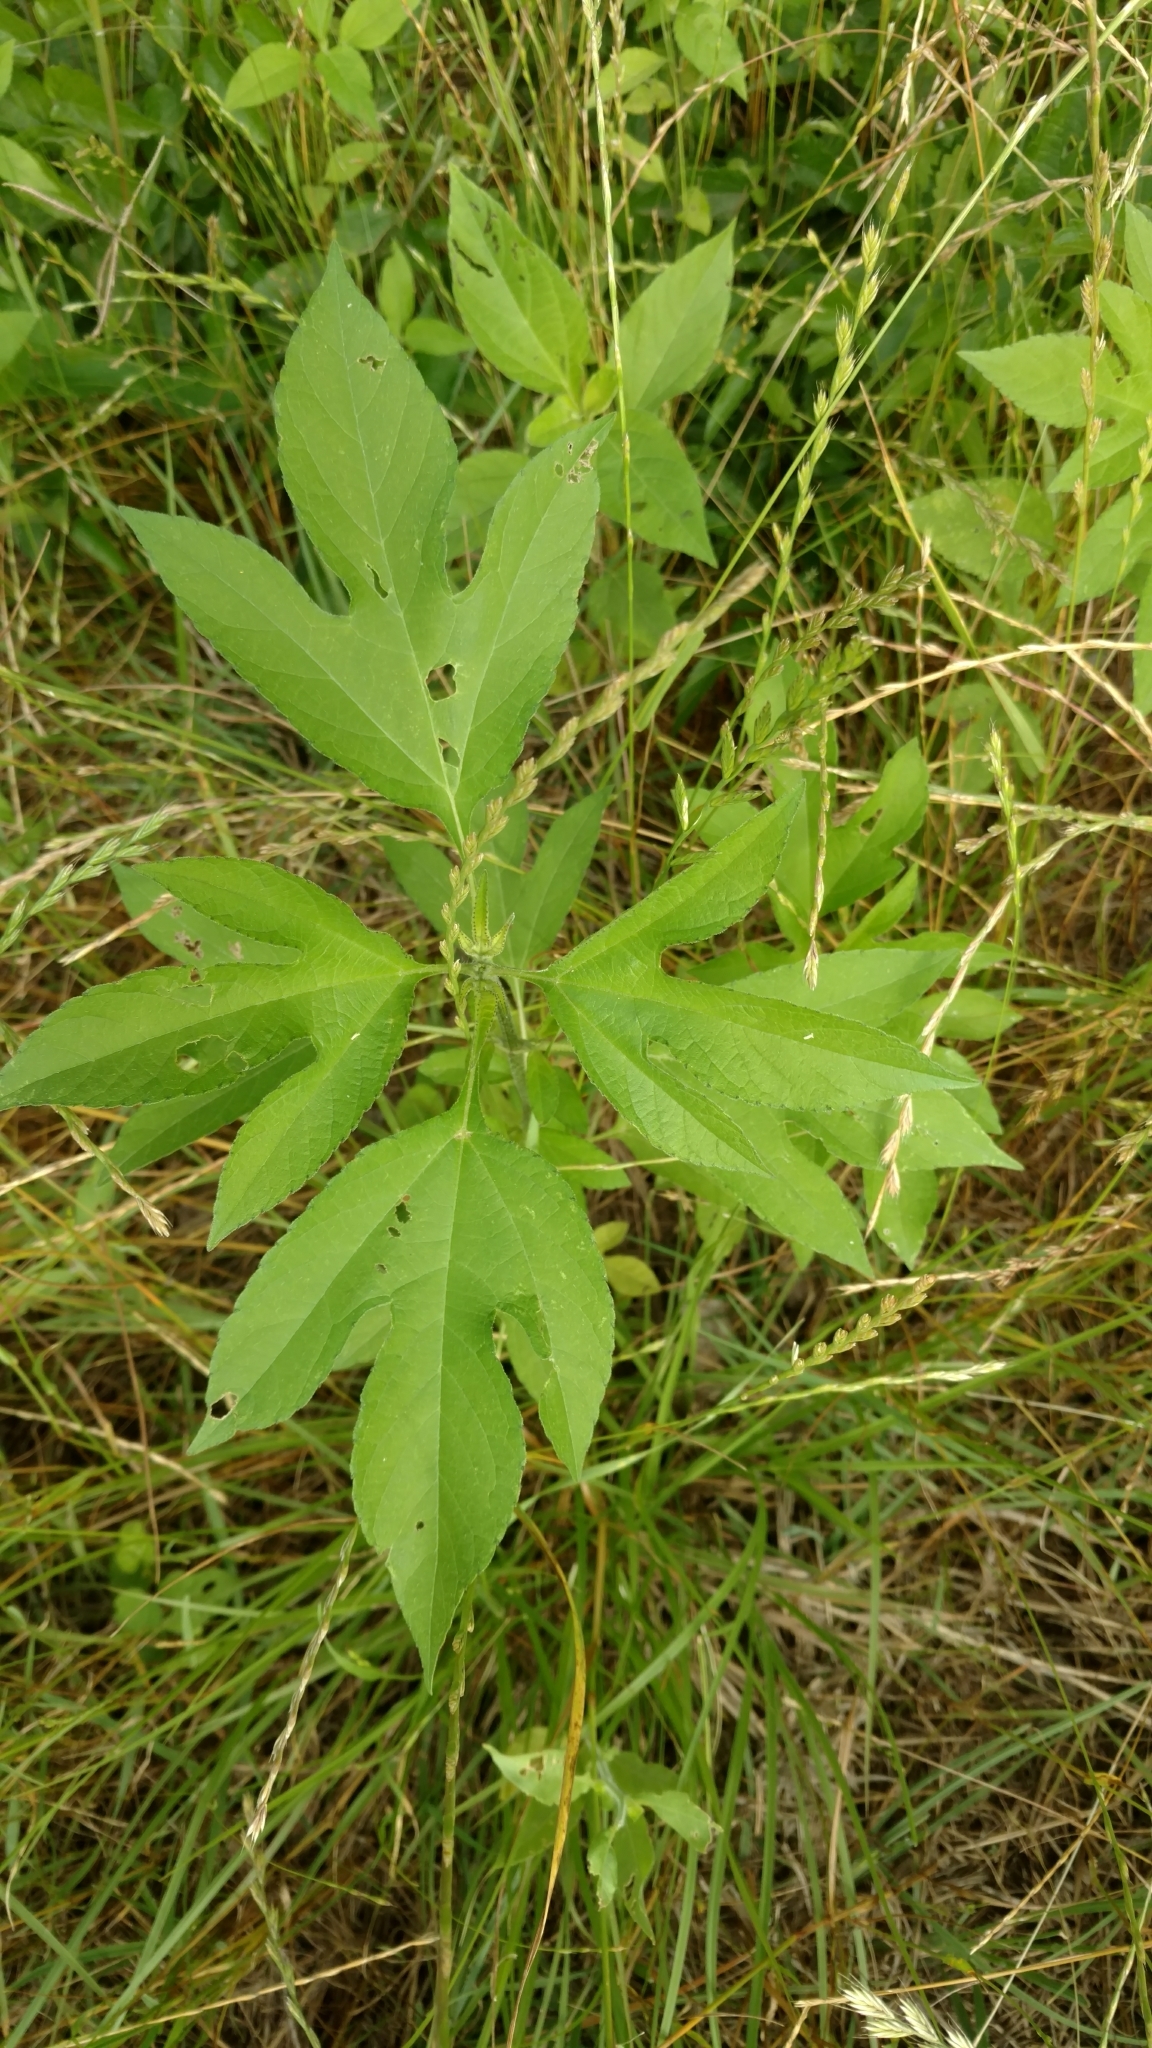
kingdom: Plantae
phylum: Tracheophyta
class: Magnoliopsida
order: Asterales
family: Asteraceae
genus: Ambrosia
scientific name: Ambrosia trifida
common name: Giant ragweed
